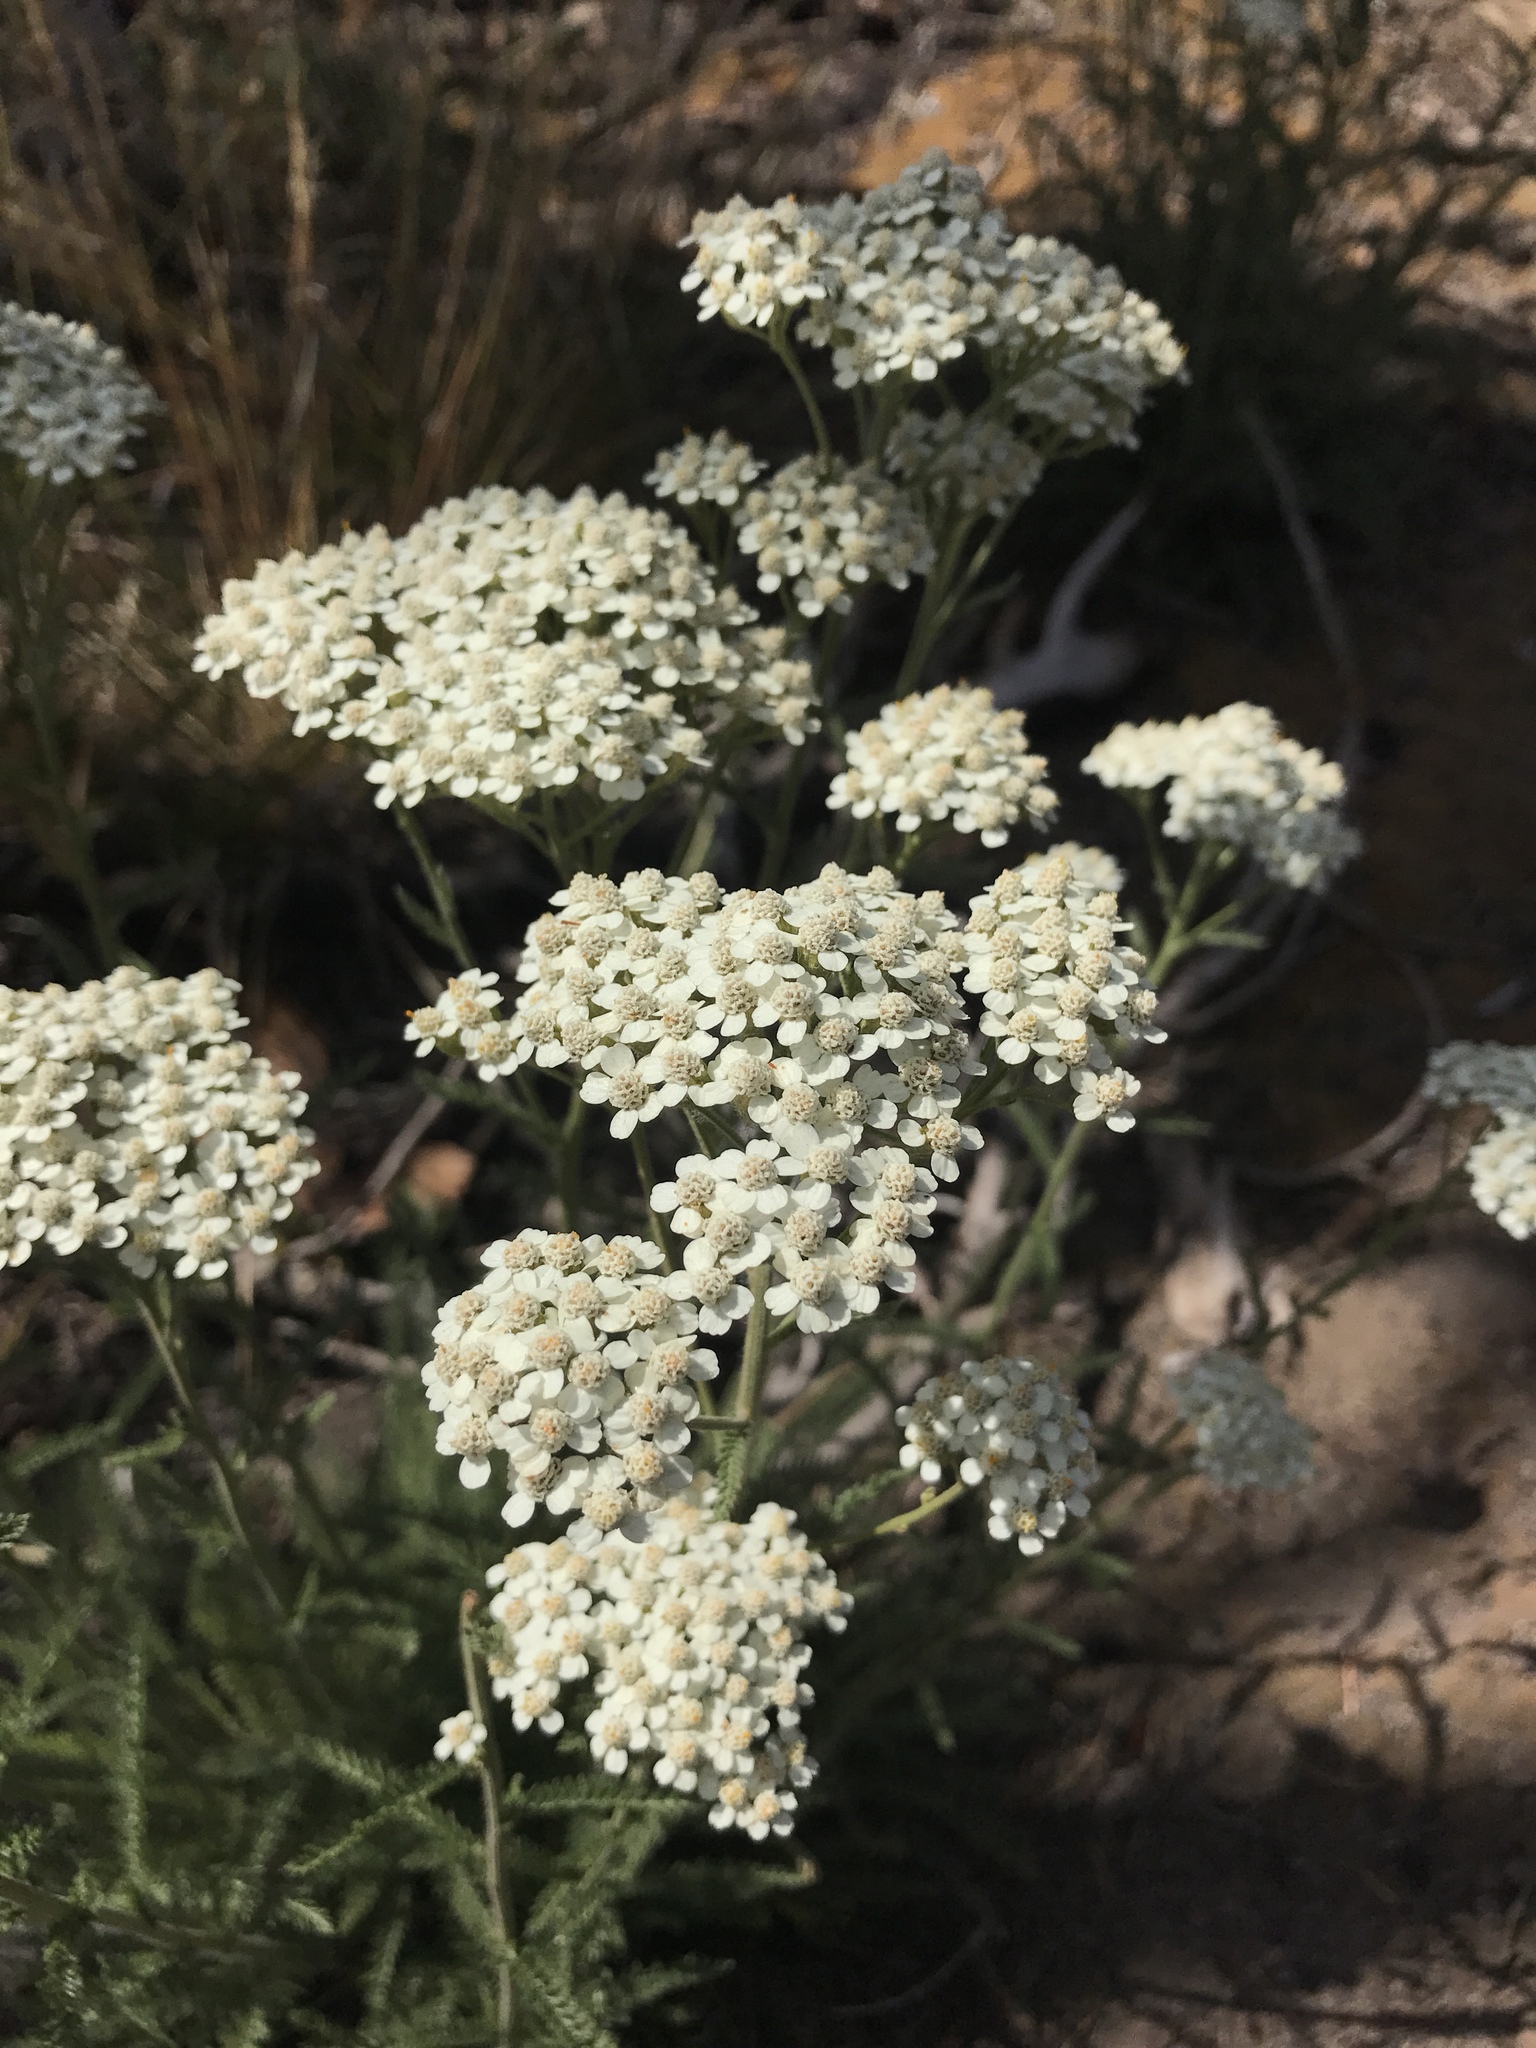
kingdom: Plantae
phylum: Tracheophyta
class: Magnoliopsida
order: Asterales
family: Asteraceae
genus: Achillea
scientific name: Achillea millefolium
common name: Yarrow
